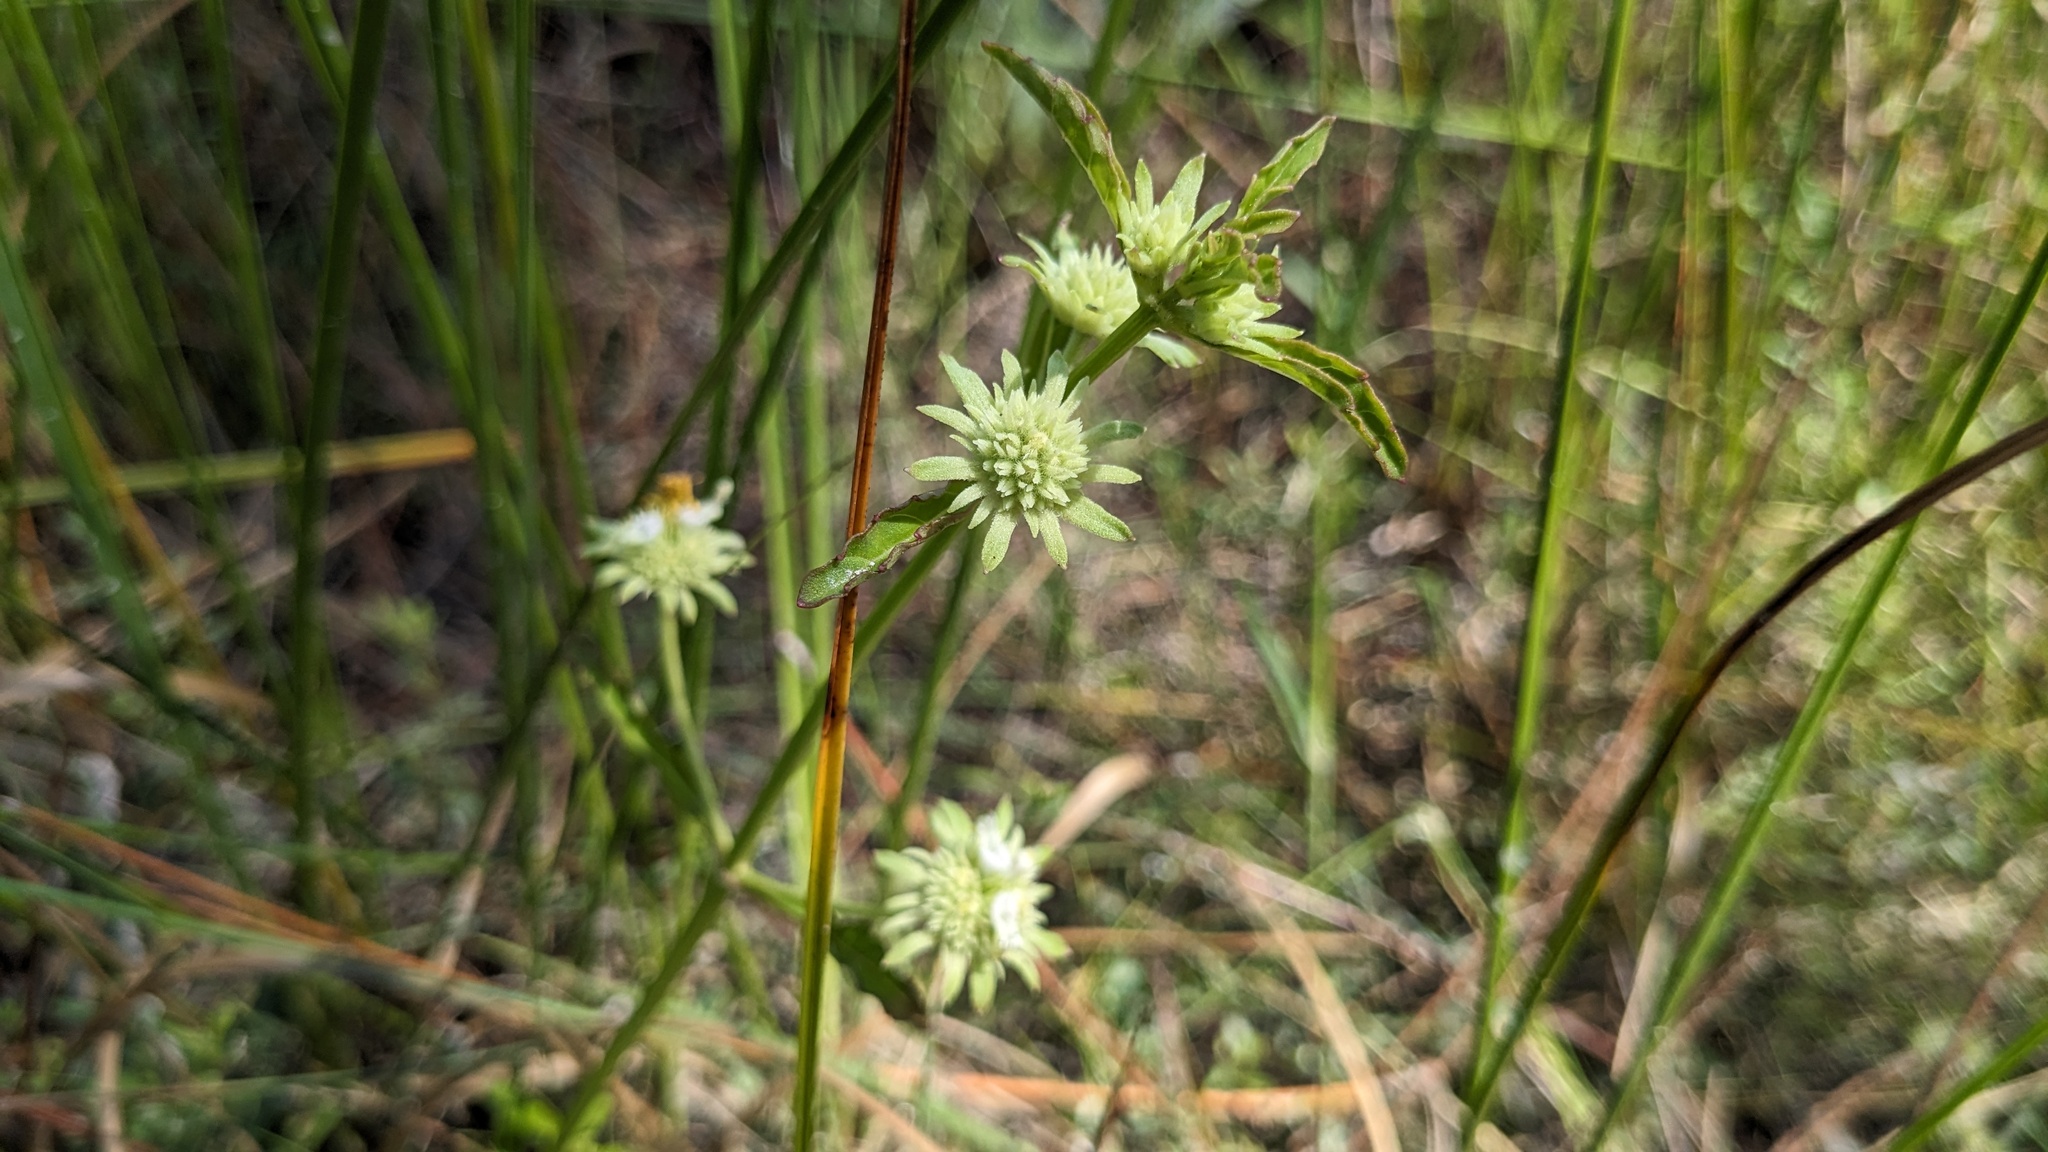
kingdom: Plantae
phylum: Tracheophyta
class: Magnoliopsida
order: Lamiales
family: Lamiaceae
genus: Hyptis
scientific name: Hyptis alata
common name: Cluster bush-mint
